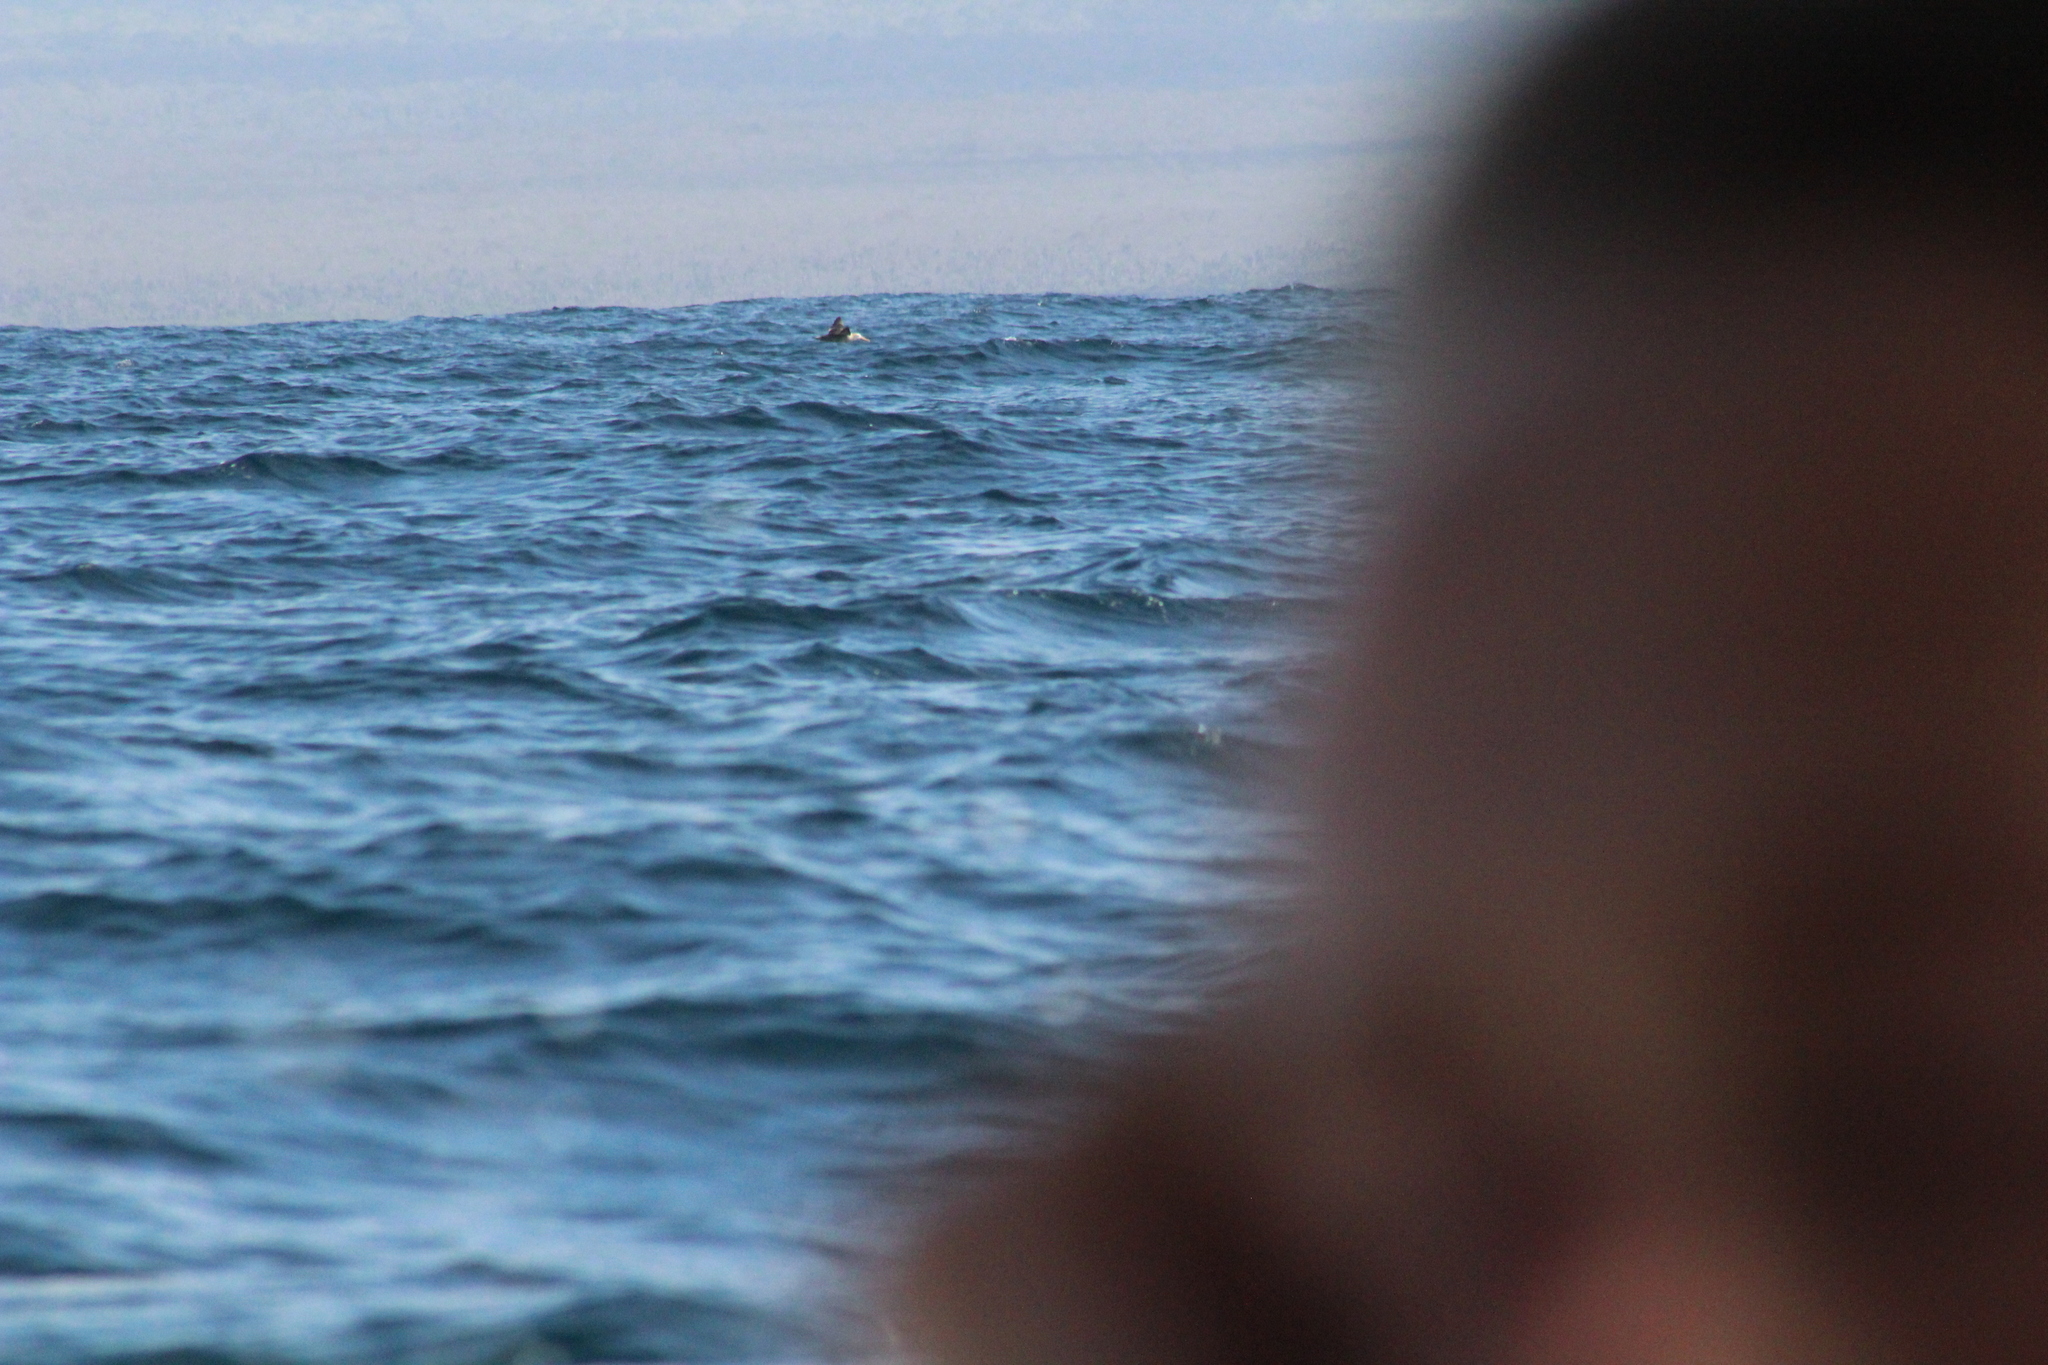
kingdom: Animalia
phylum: Chordata
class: Aves
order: Procellariiformes
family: Diomedeidae
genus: Phoebastria
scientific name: Phoebastria irrorata
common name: Waved albatross
